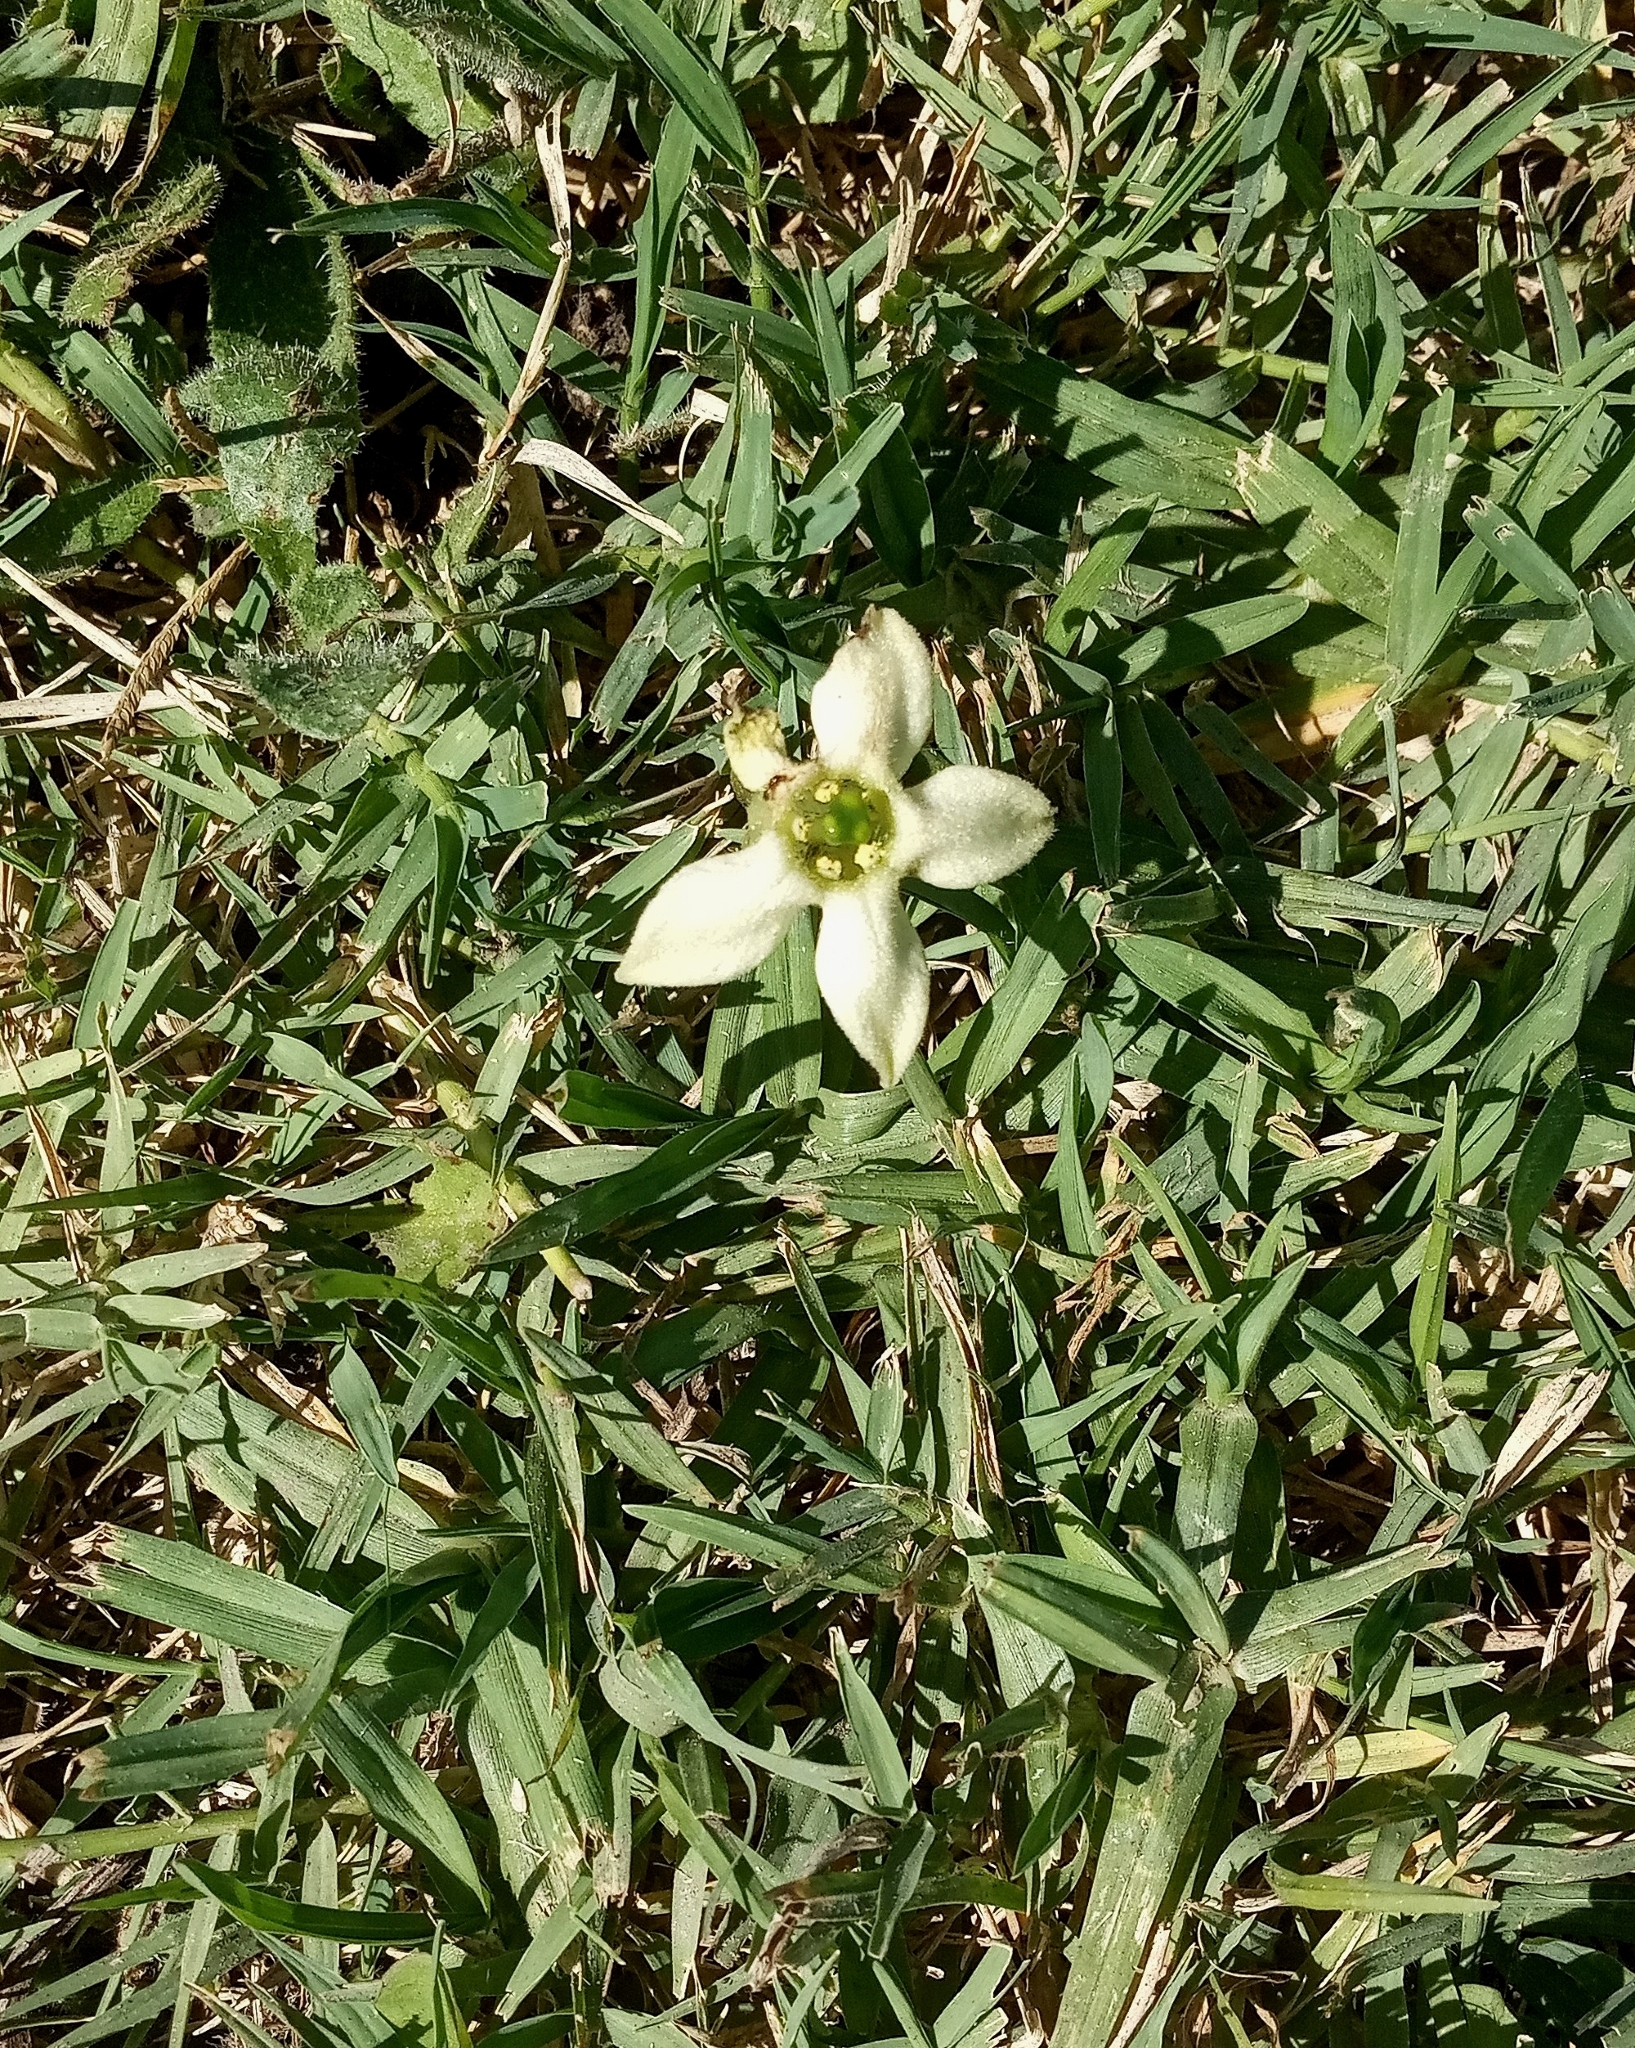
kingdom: Plantae
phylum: Tracheophyta
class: Magnoliopsida
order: Solanales
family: Solanaceae
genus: Jaborosa
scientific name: Jaborosa runcinata
